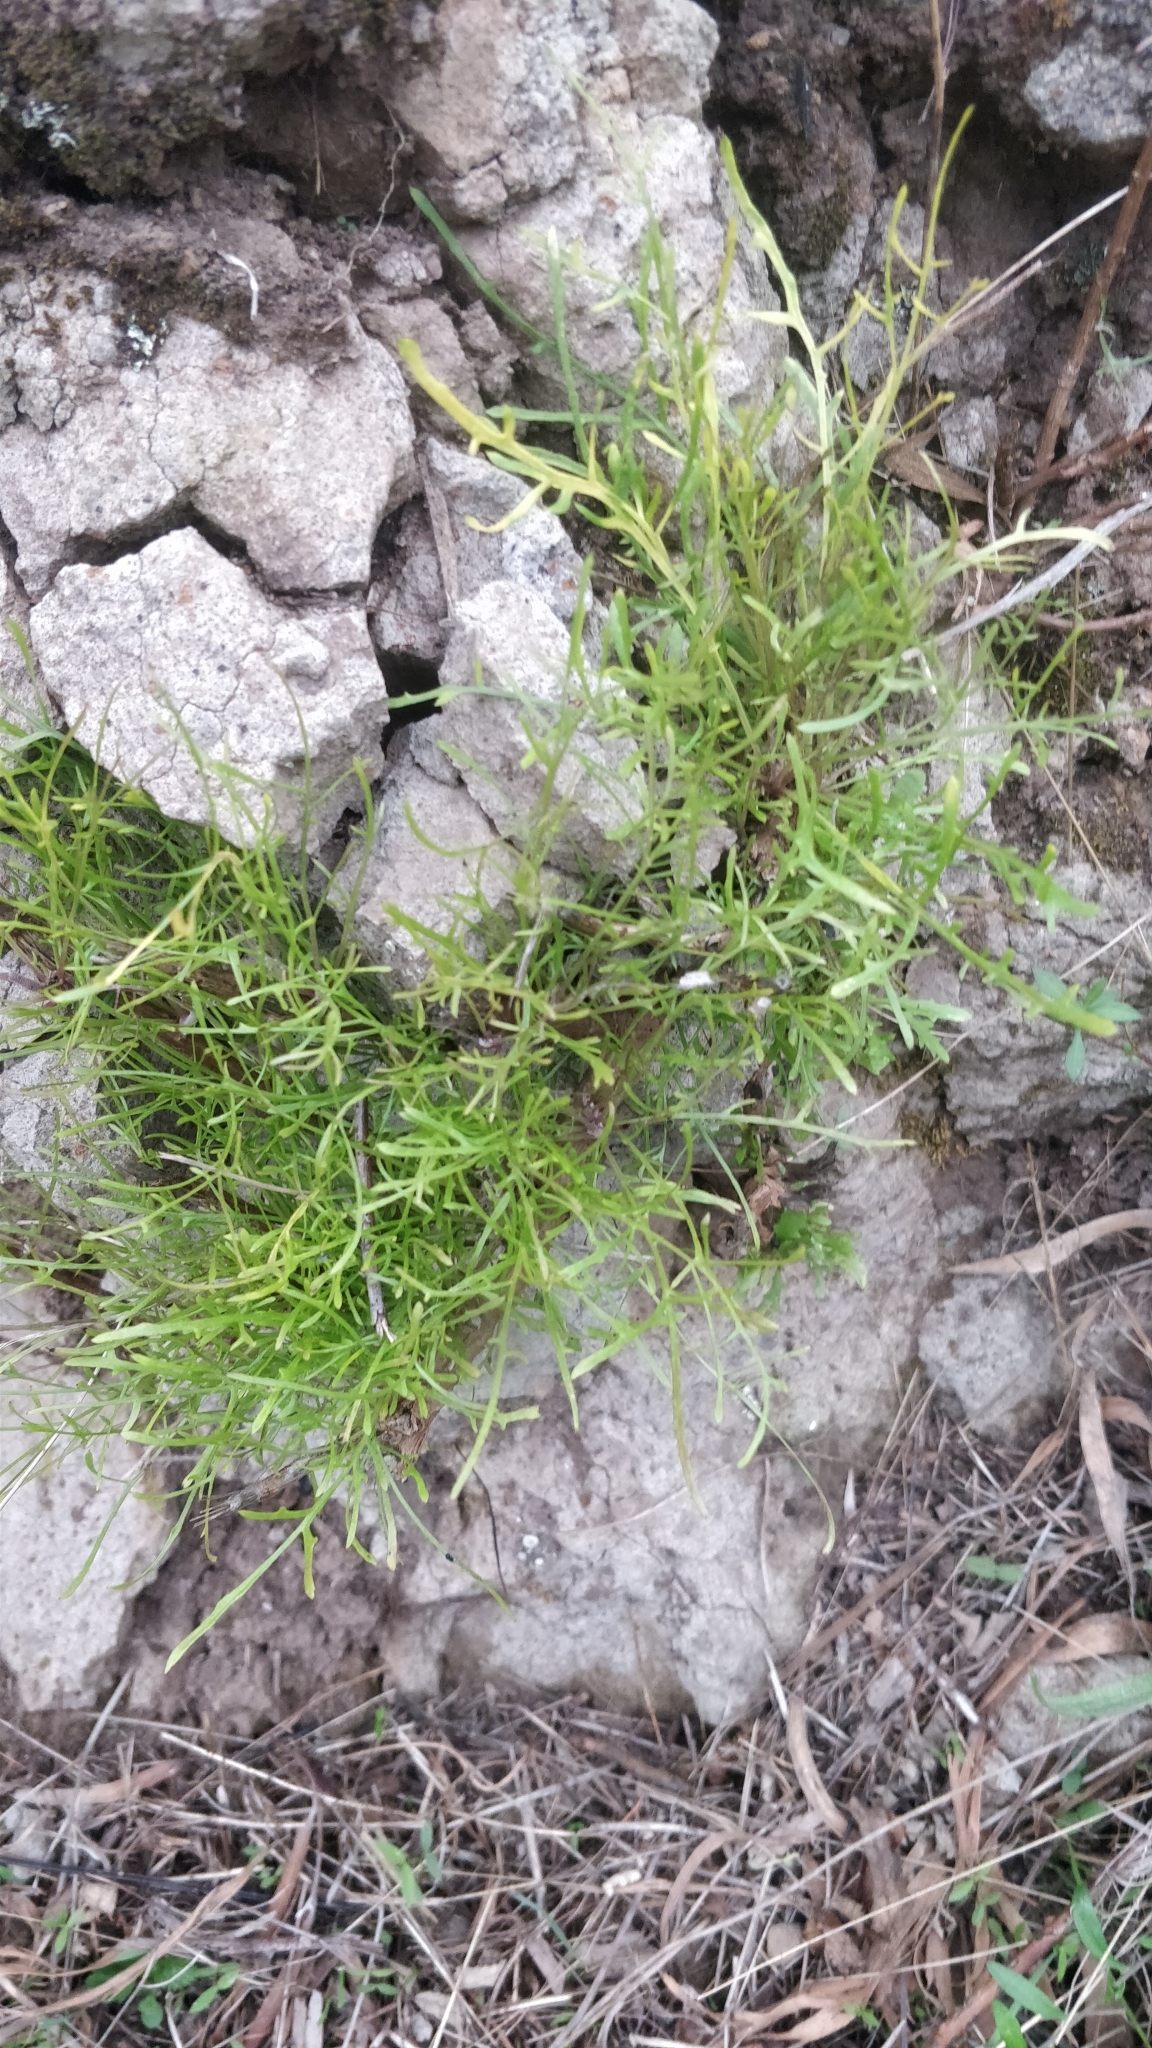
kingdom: Plantae
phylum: Tracheophyta
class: Magnoliopsida
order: Asterales
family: Asteraceae
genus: Tolpis
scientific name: Tolpis succulenta
